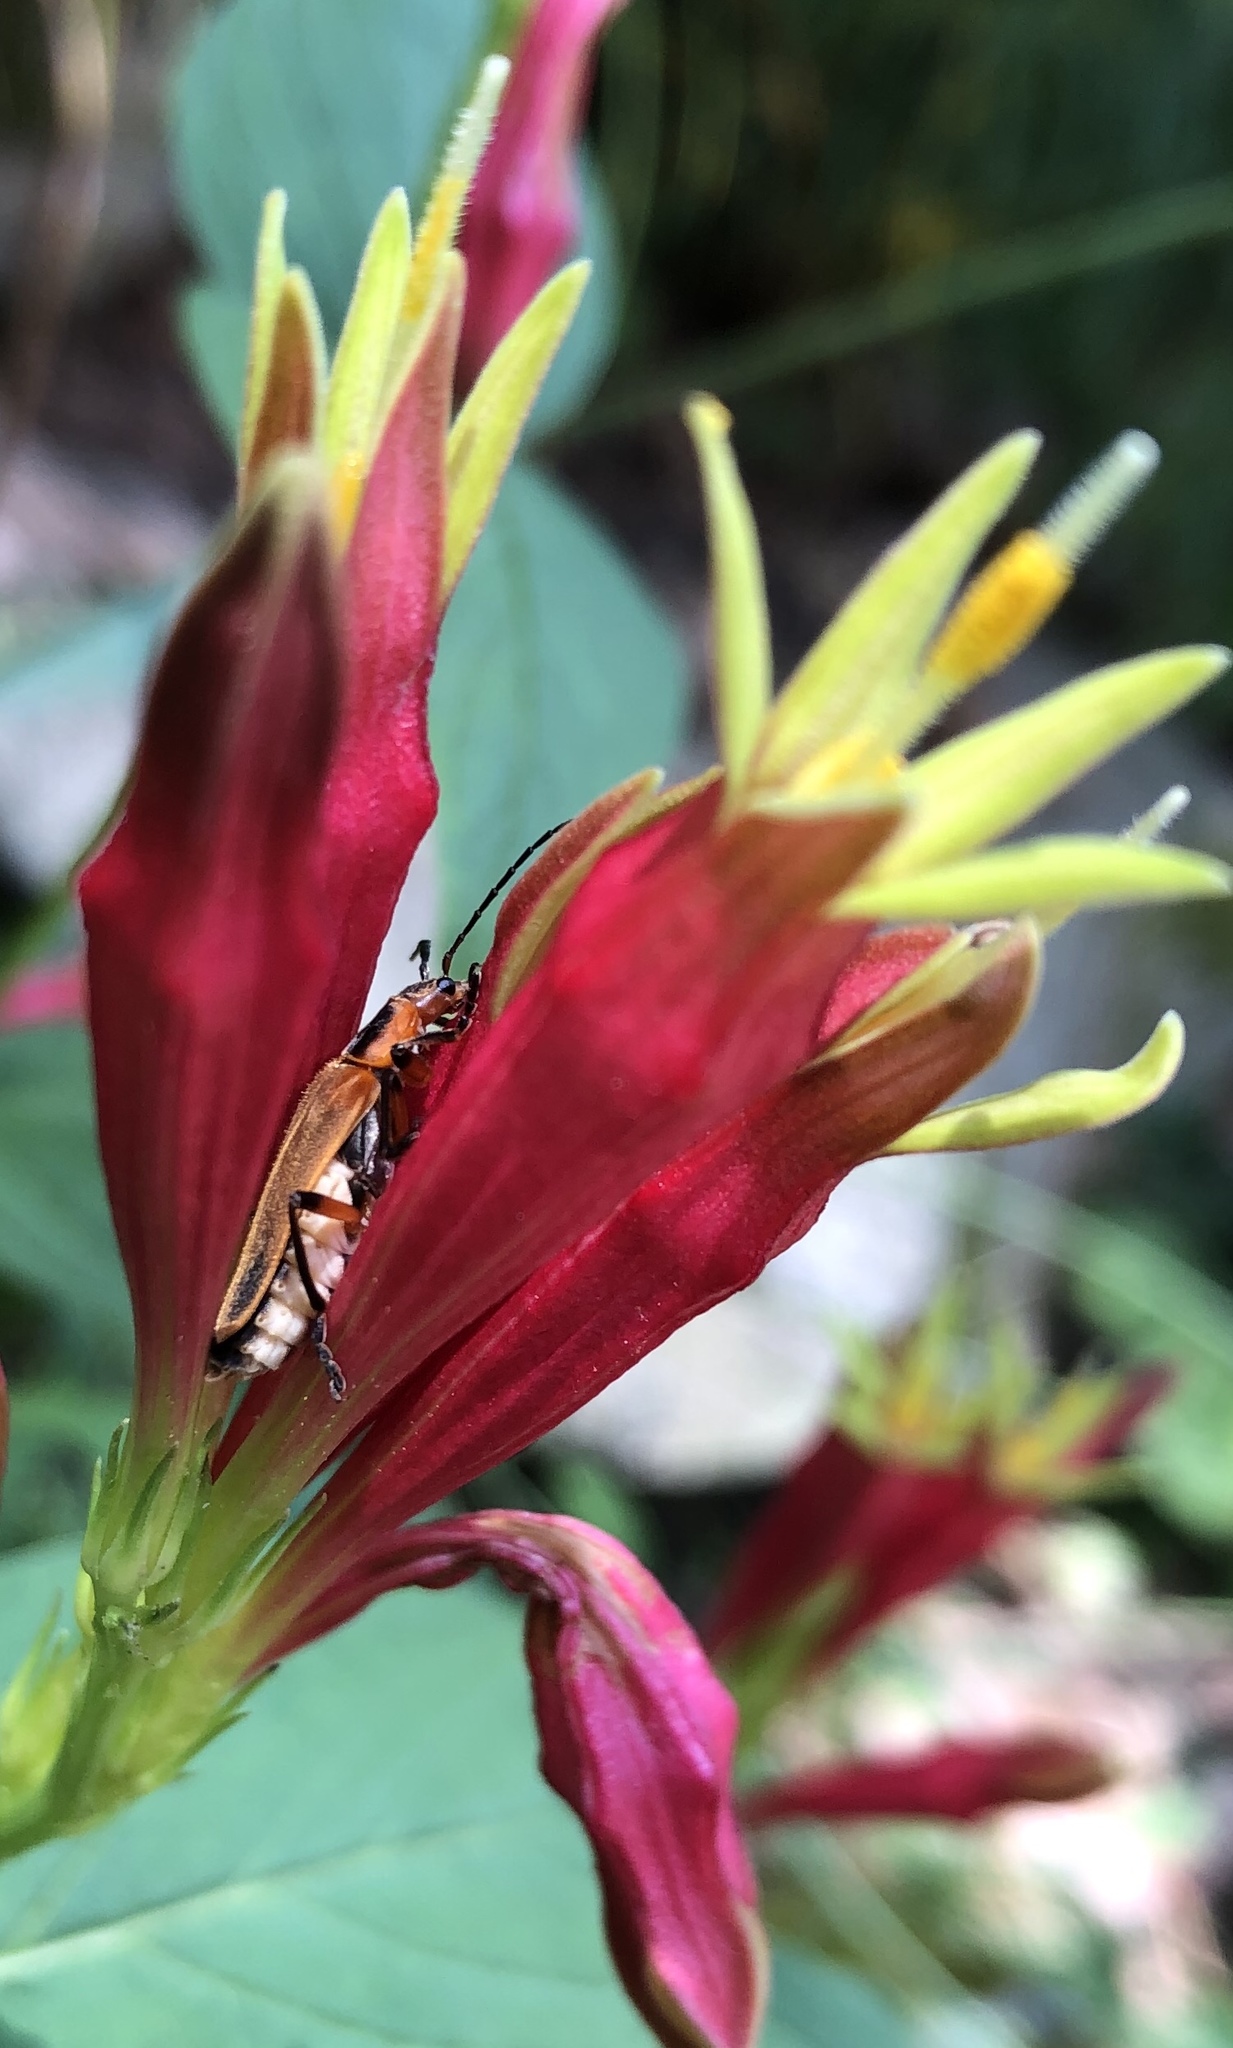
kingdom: Animalia
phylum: Arthropoda
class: Insecta
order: Coleoptera
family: Cantharidae
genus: Chauliognathus
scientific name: Chauliognathus marginatus
